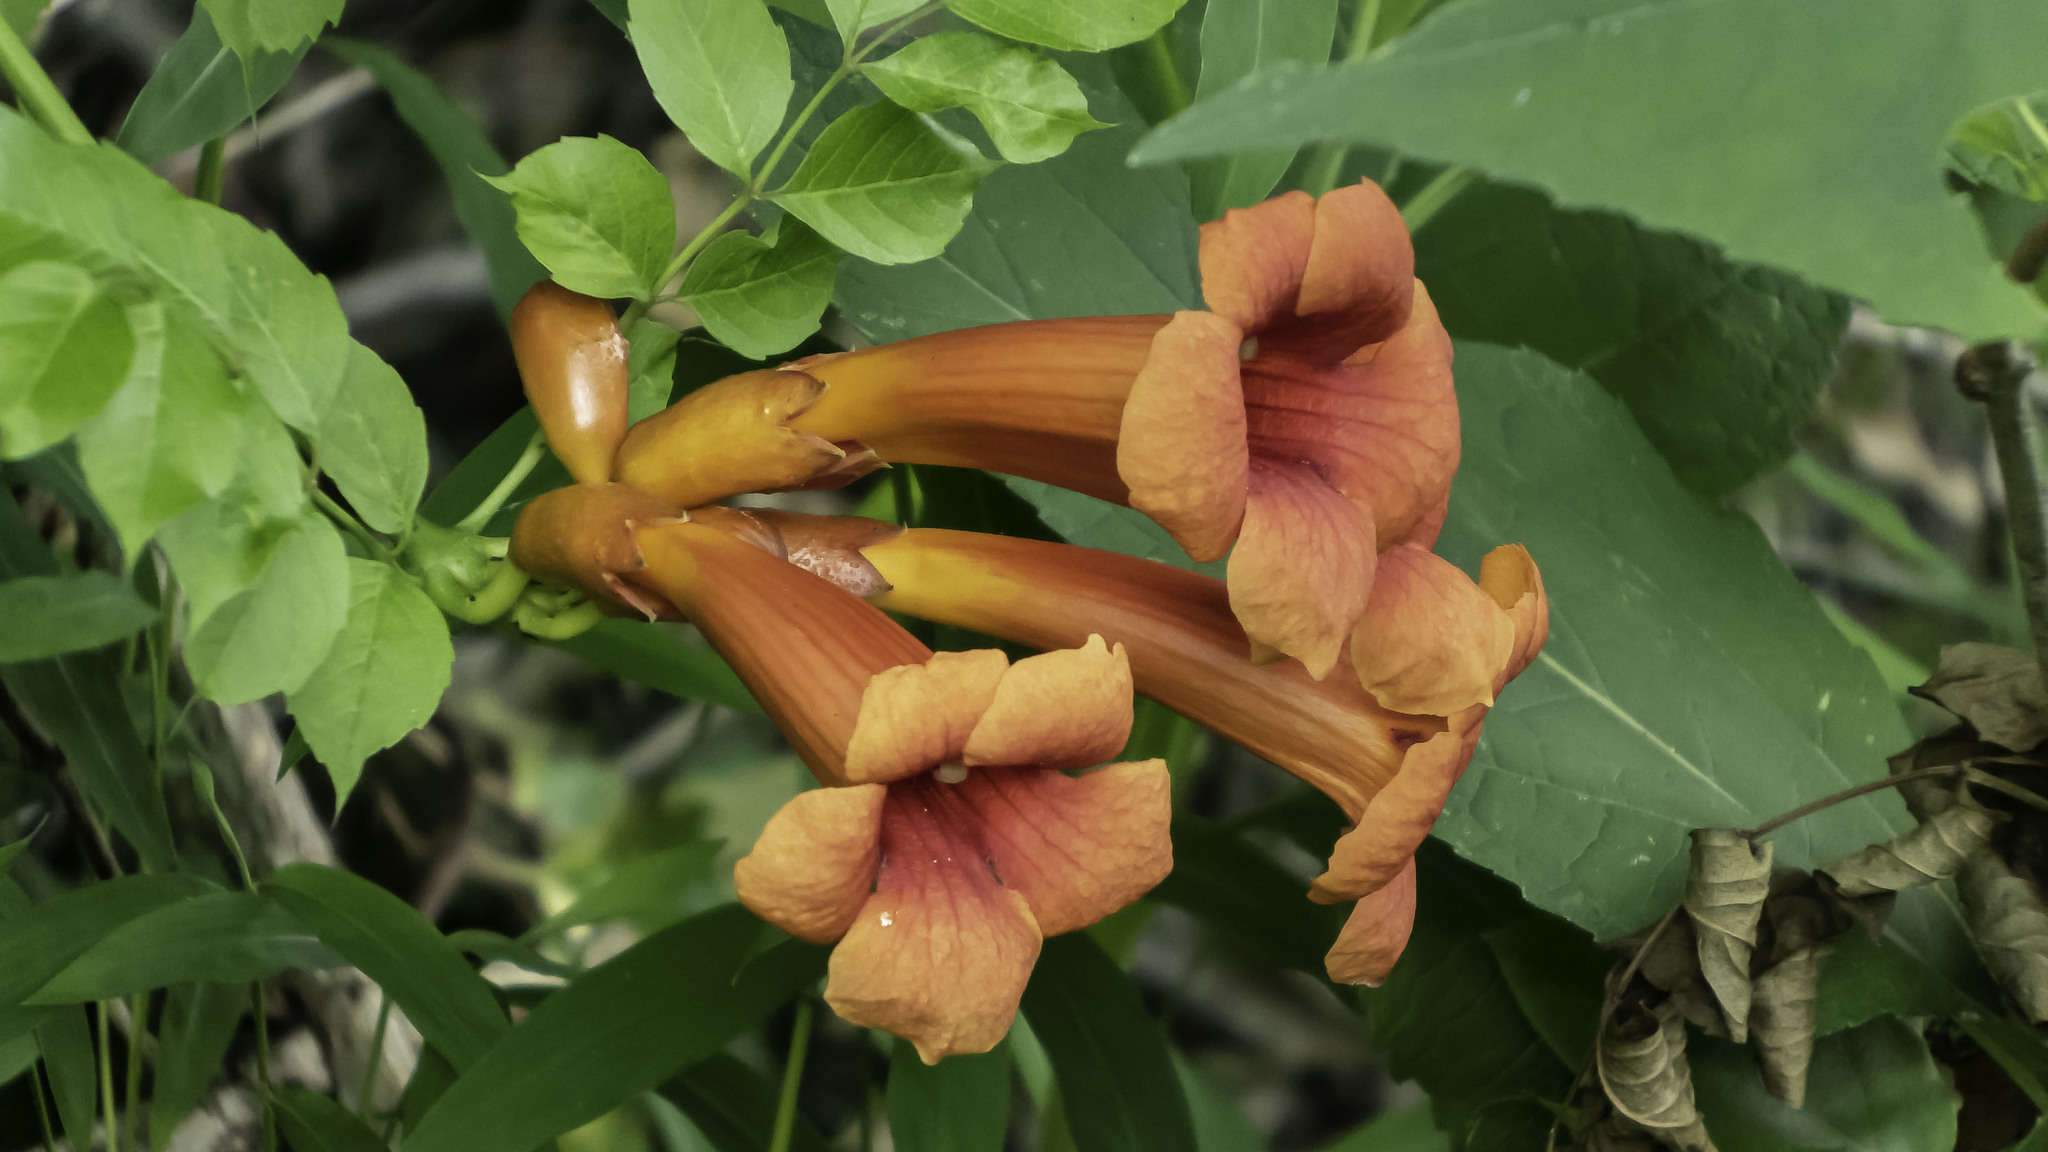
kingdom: Plantae
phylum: Tracheophyta
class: Magnoliopsida
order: Lamiales
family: Bignoniaceae
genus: Campsis
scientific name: Campsis radicans
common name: Trumpet-creeper
